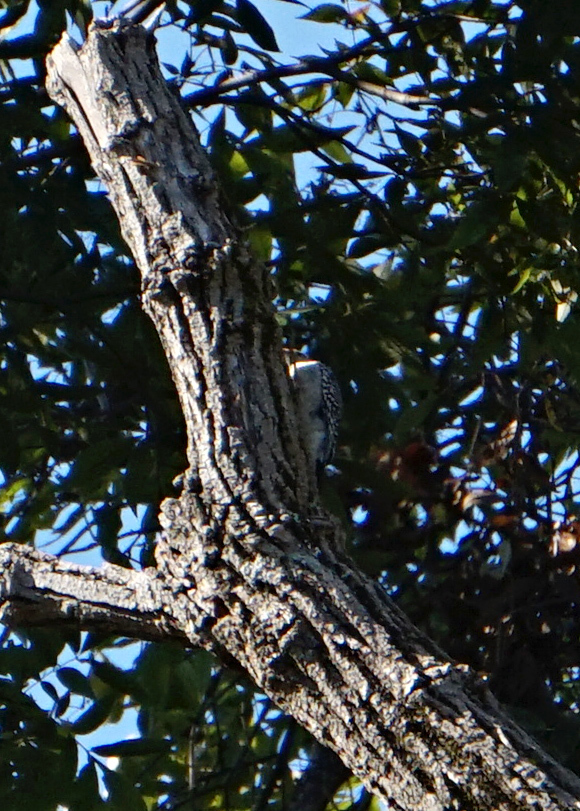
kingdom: Animalia
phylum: Chordata
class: Aves
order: Piciformes
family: Picidae
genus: Melanerpes
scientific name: Melanerpes carolinus
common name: Red-bellied woodpecker
